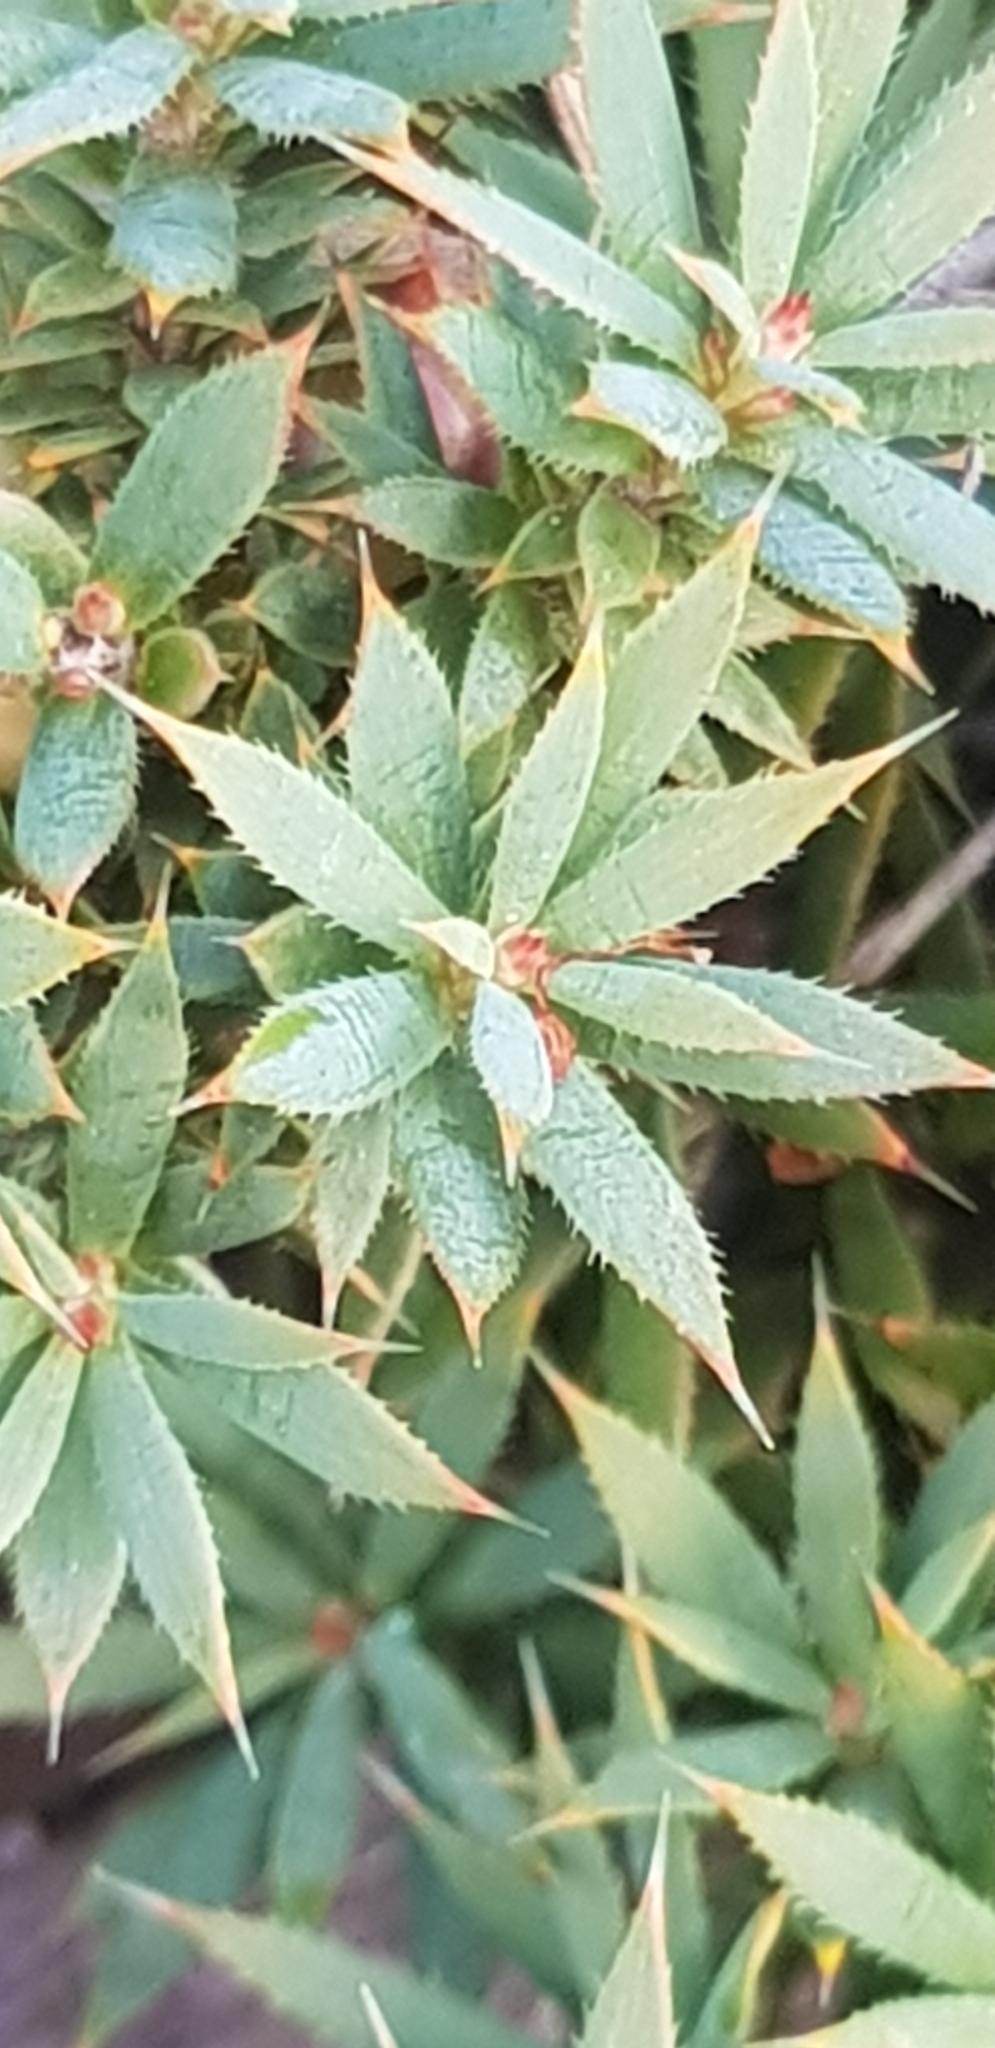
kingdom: Plantae
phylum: Tracheophyta
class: Magnoliopsida
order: Ericales
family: Ericaceae
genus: Styphelia
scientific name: Styphelia humifusa
